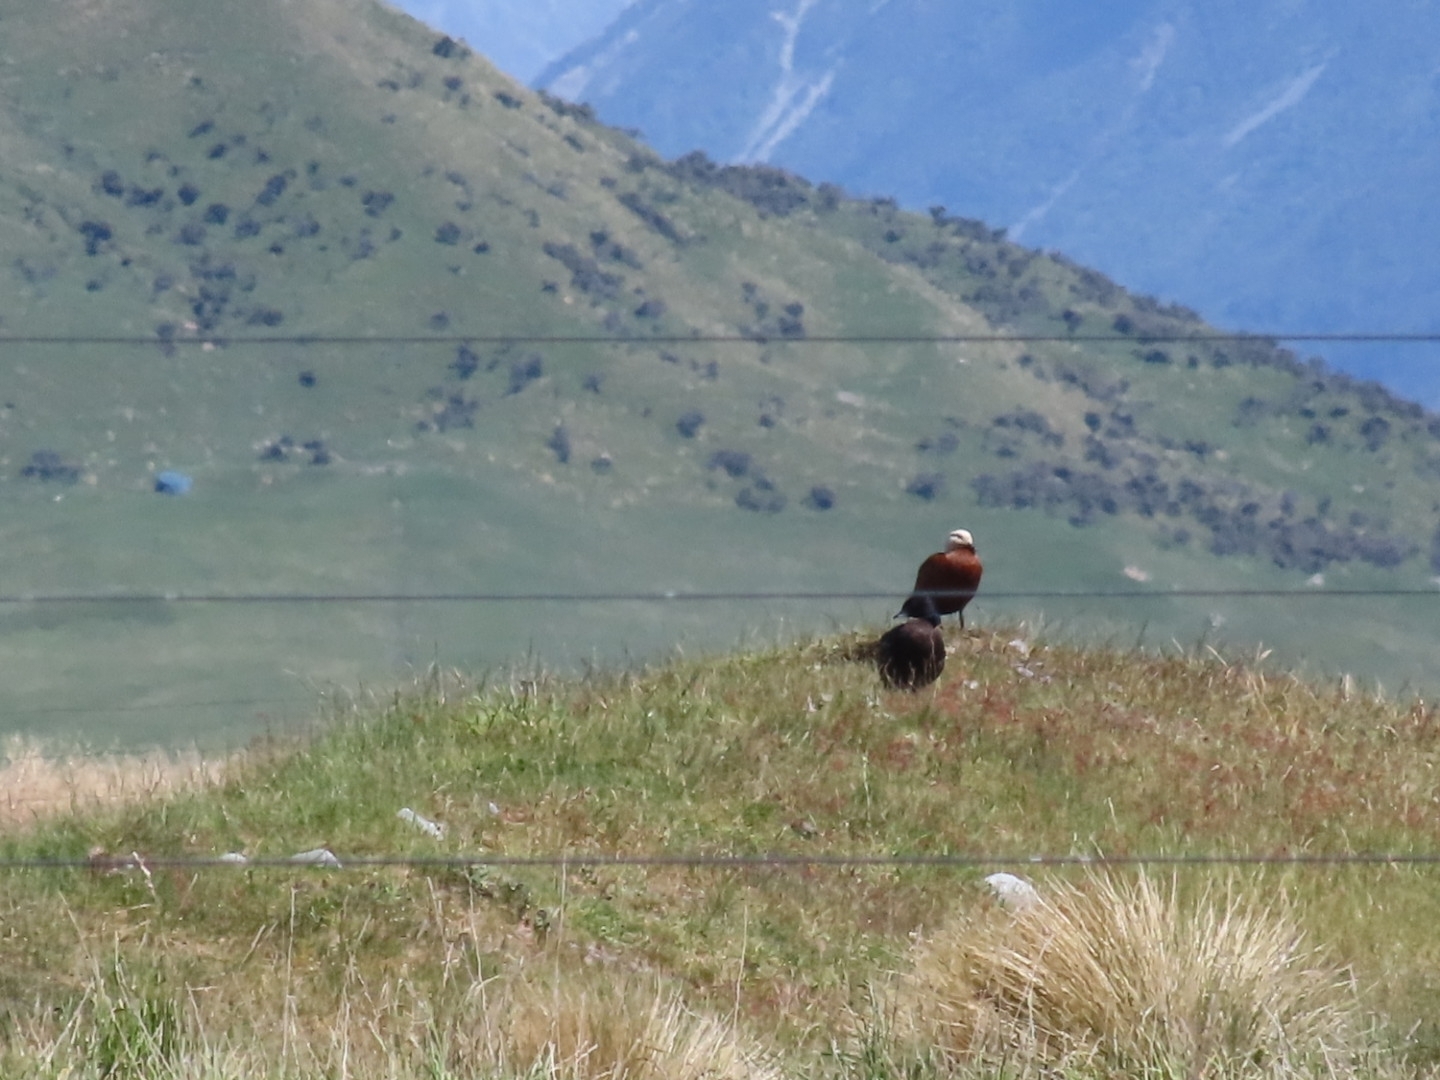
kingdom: Animalia
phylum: Chordata
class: Aves
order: Anseriformes
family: Anatidae
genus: Tadorna
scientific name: Tadorna variegata
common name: Paradise shelduck
